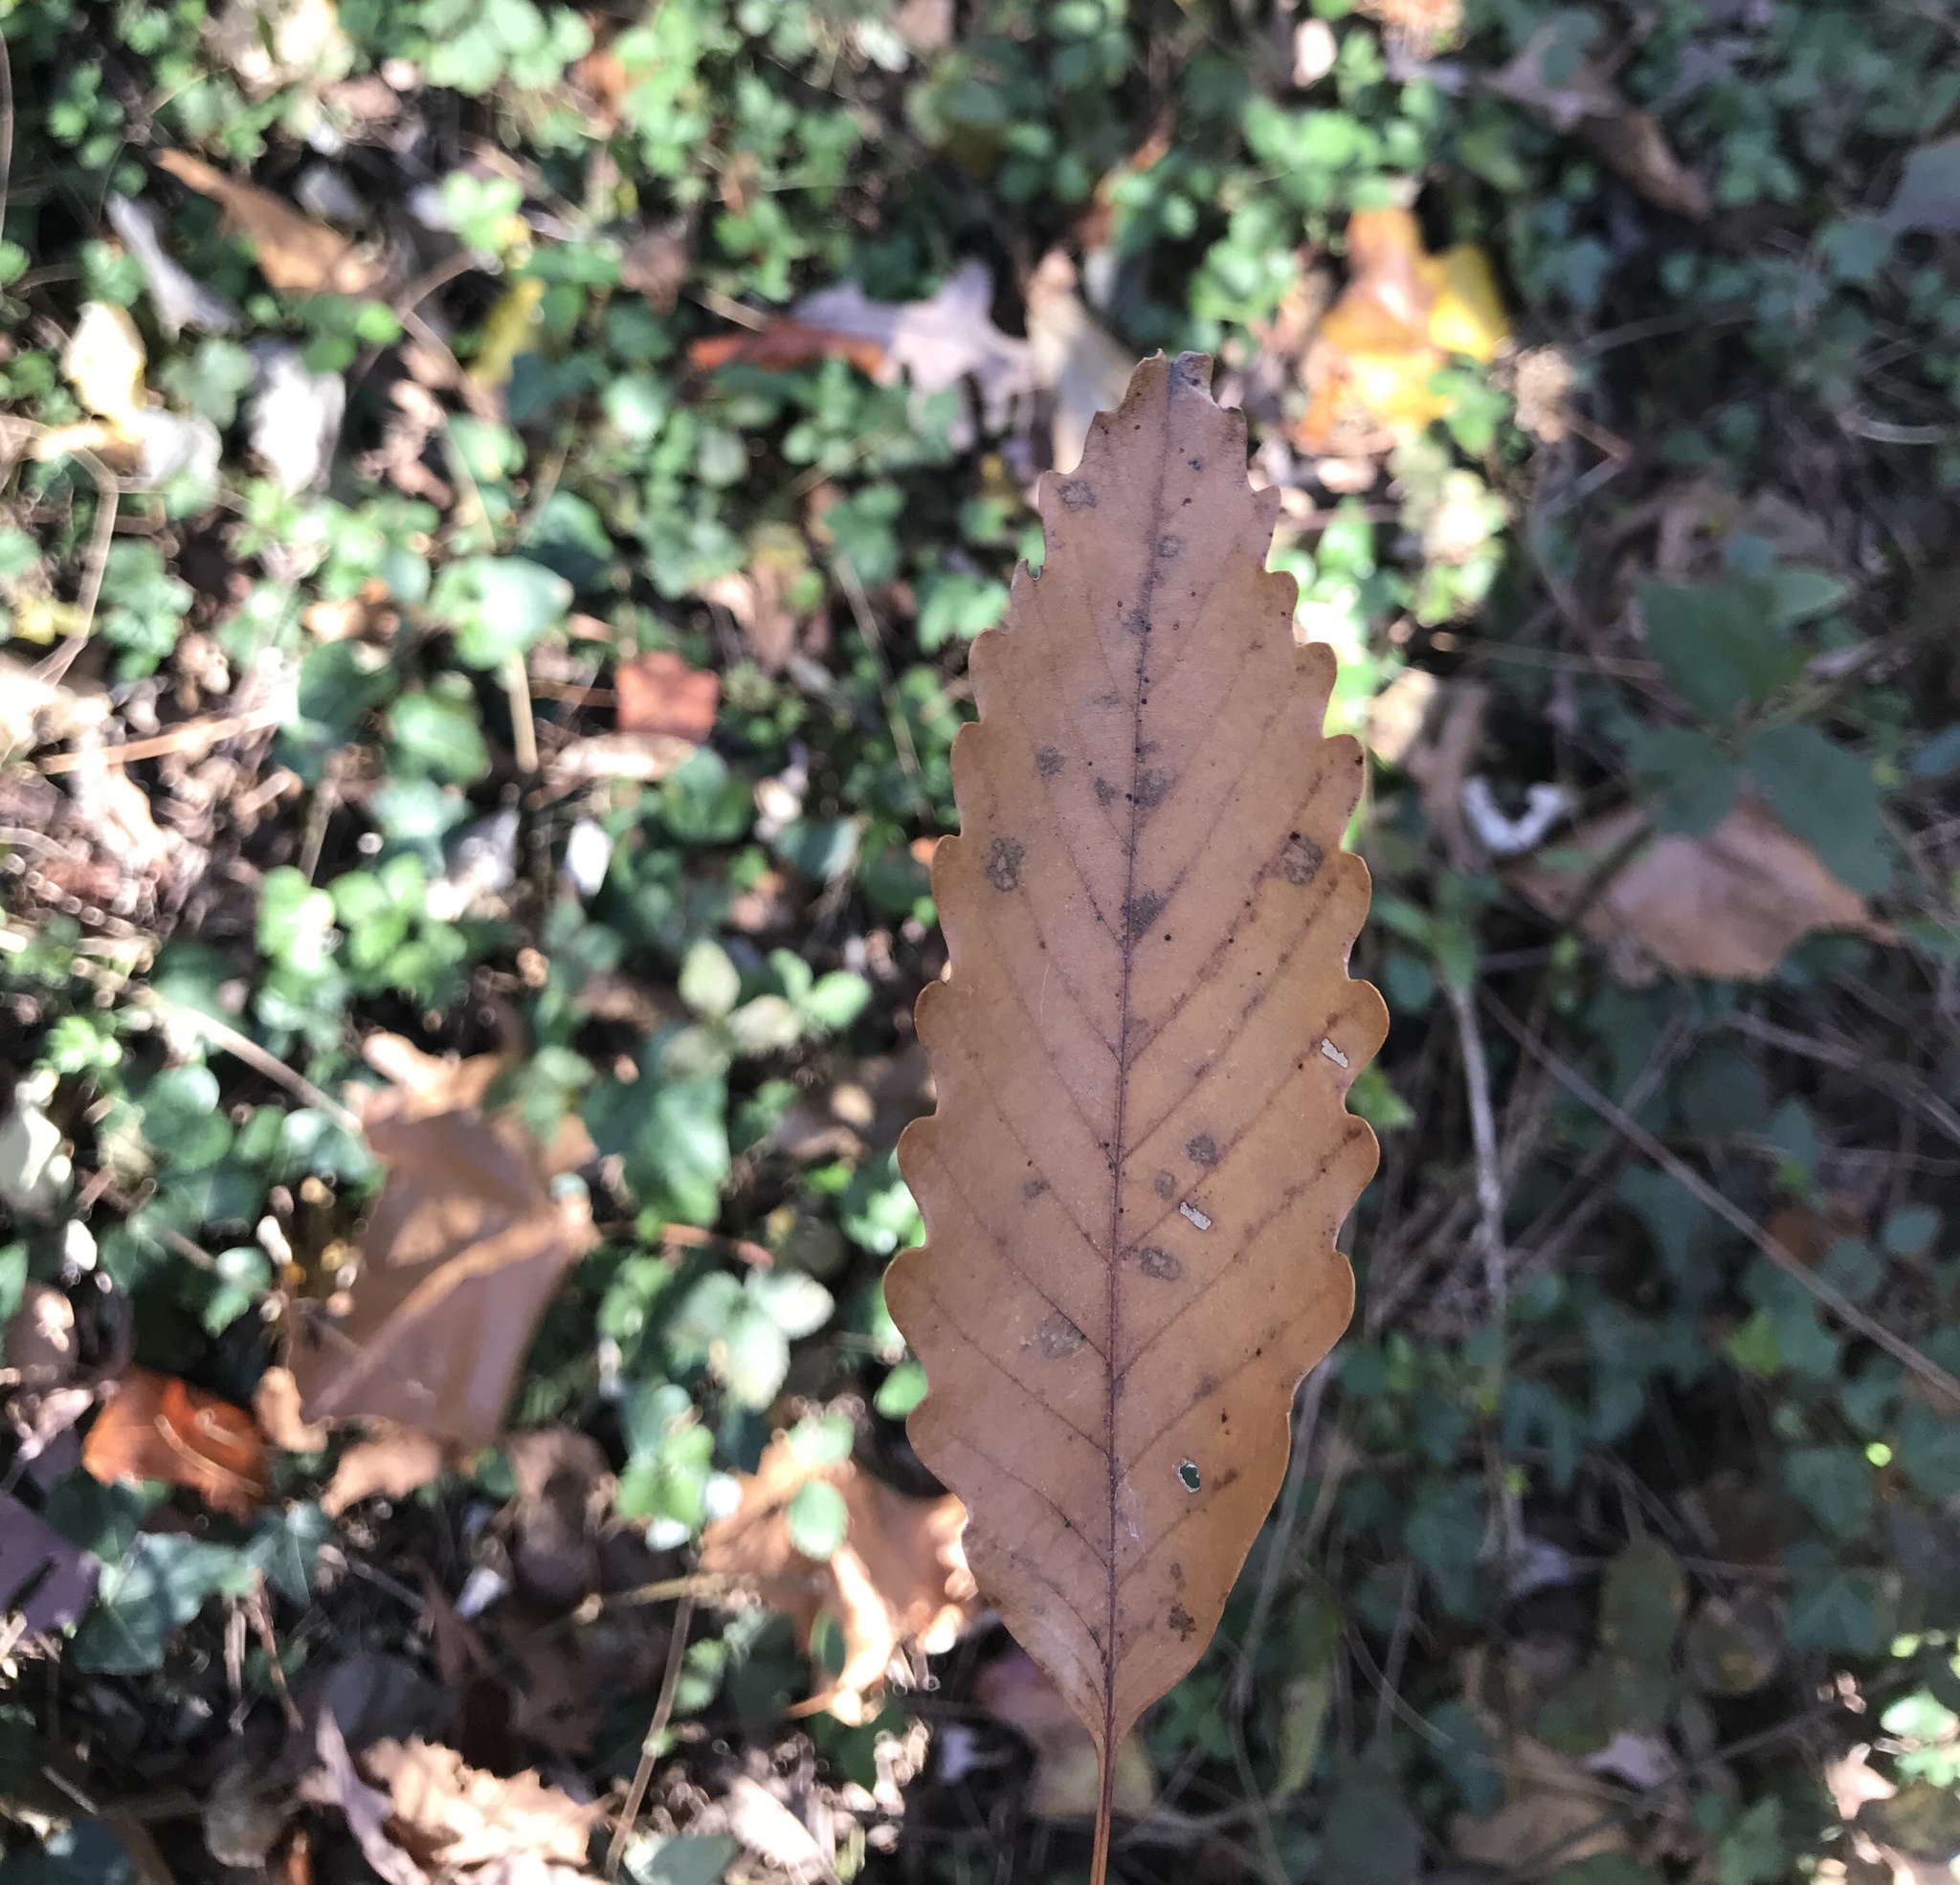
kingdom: Plantae
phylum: Tracheophyta
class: Magnoliopsida
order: Fagales
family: Fagaceae
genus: Quercus
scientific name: Quercus montana
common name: Chestnut oak
